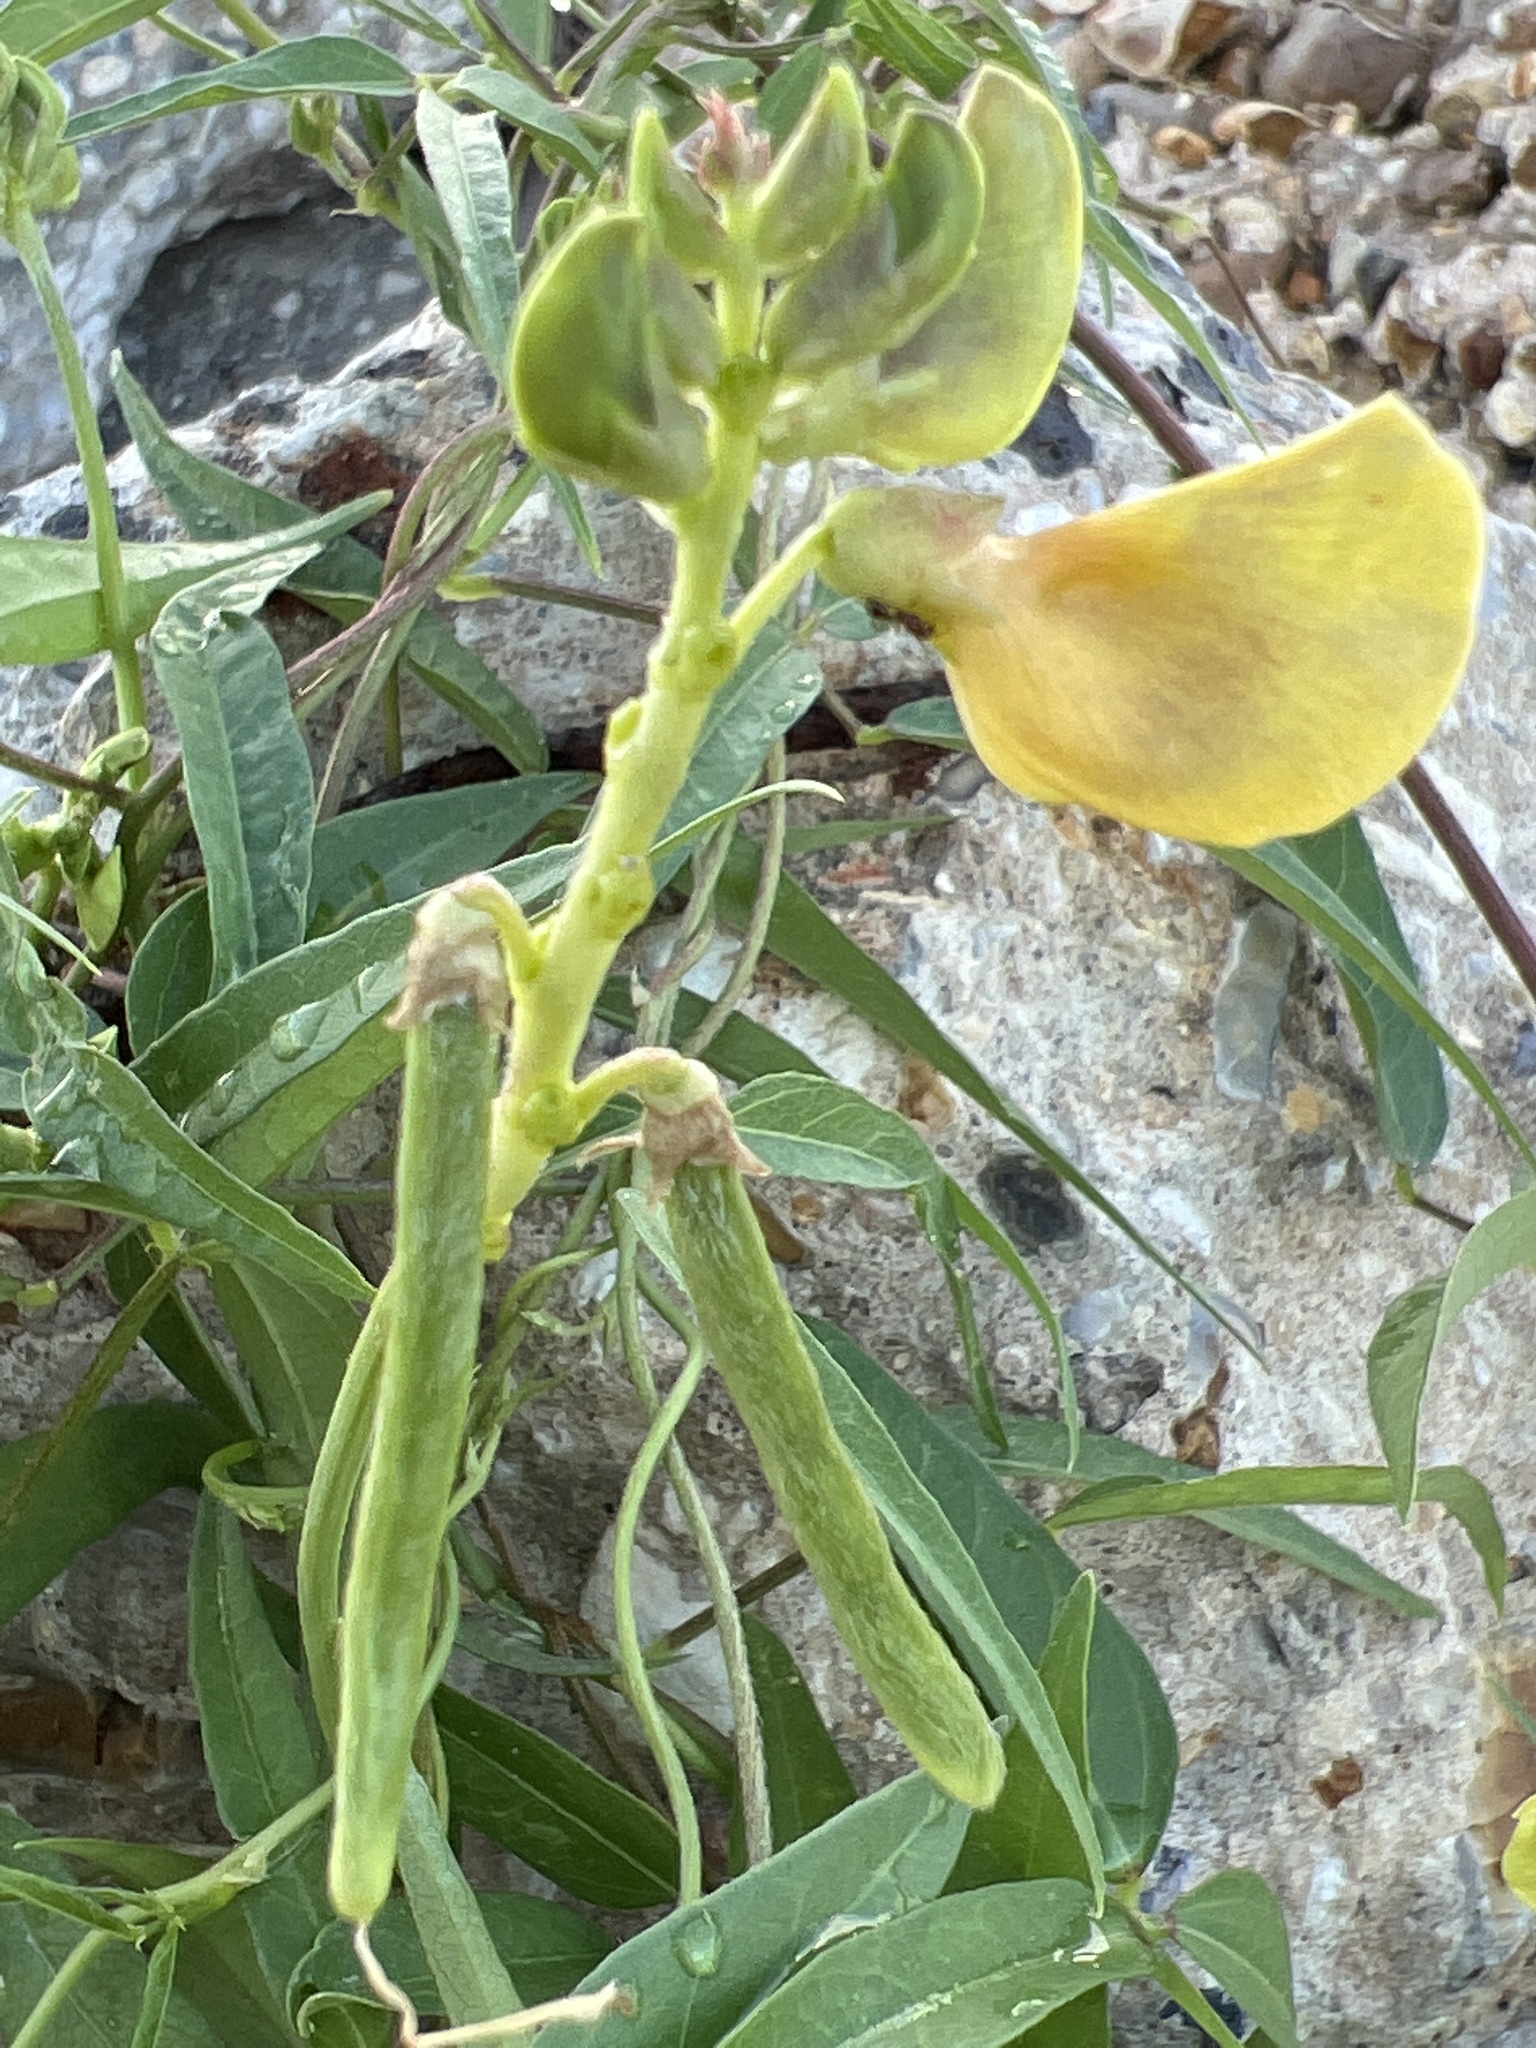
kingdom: Plantae
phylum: Tracheophyta
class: Magnoliopsida
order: Fabales
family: Fabaceae
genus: Vigna
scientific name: Vigna luteola
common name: Hairypod cowpea
